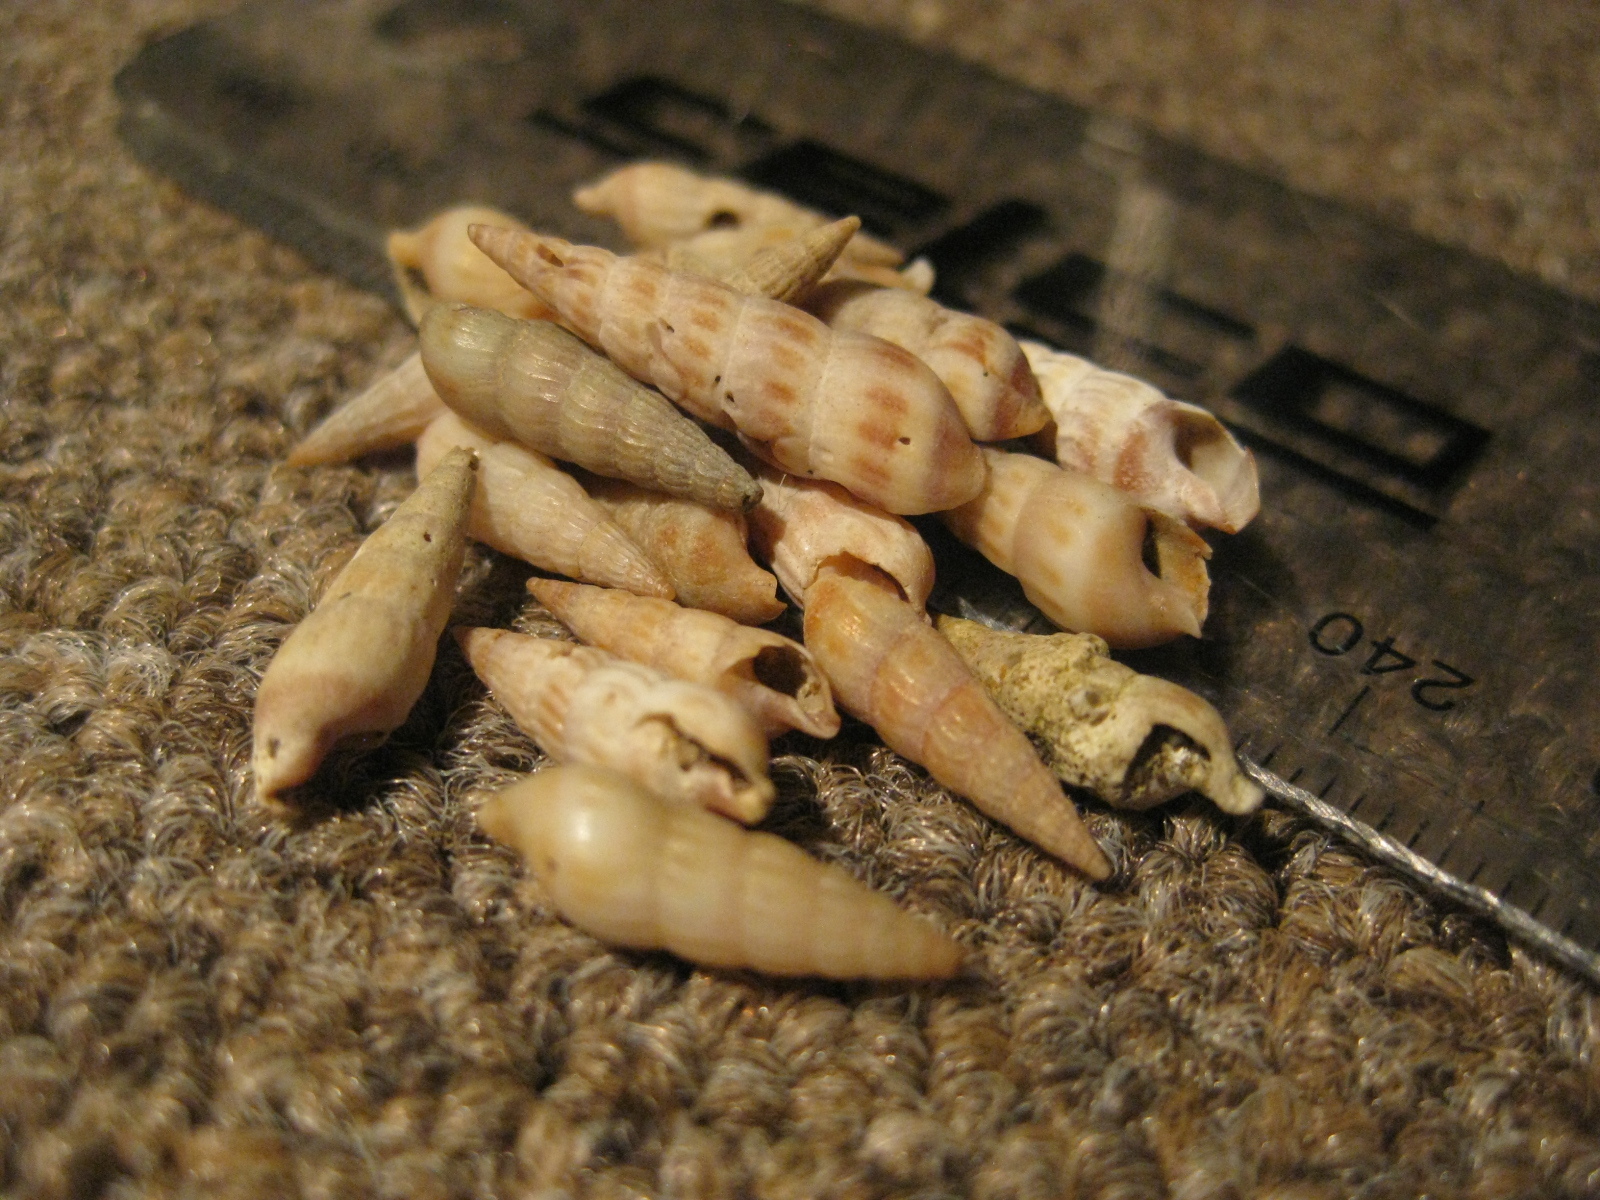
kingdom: Animalia
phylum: Mollusca
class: Gastropoda
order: Neogastropoda
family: Terebridae
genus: Duplicaria
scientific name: Duplicaria tristis
